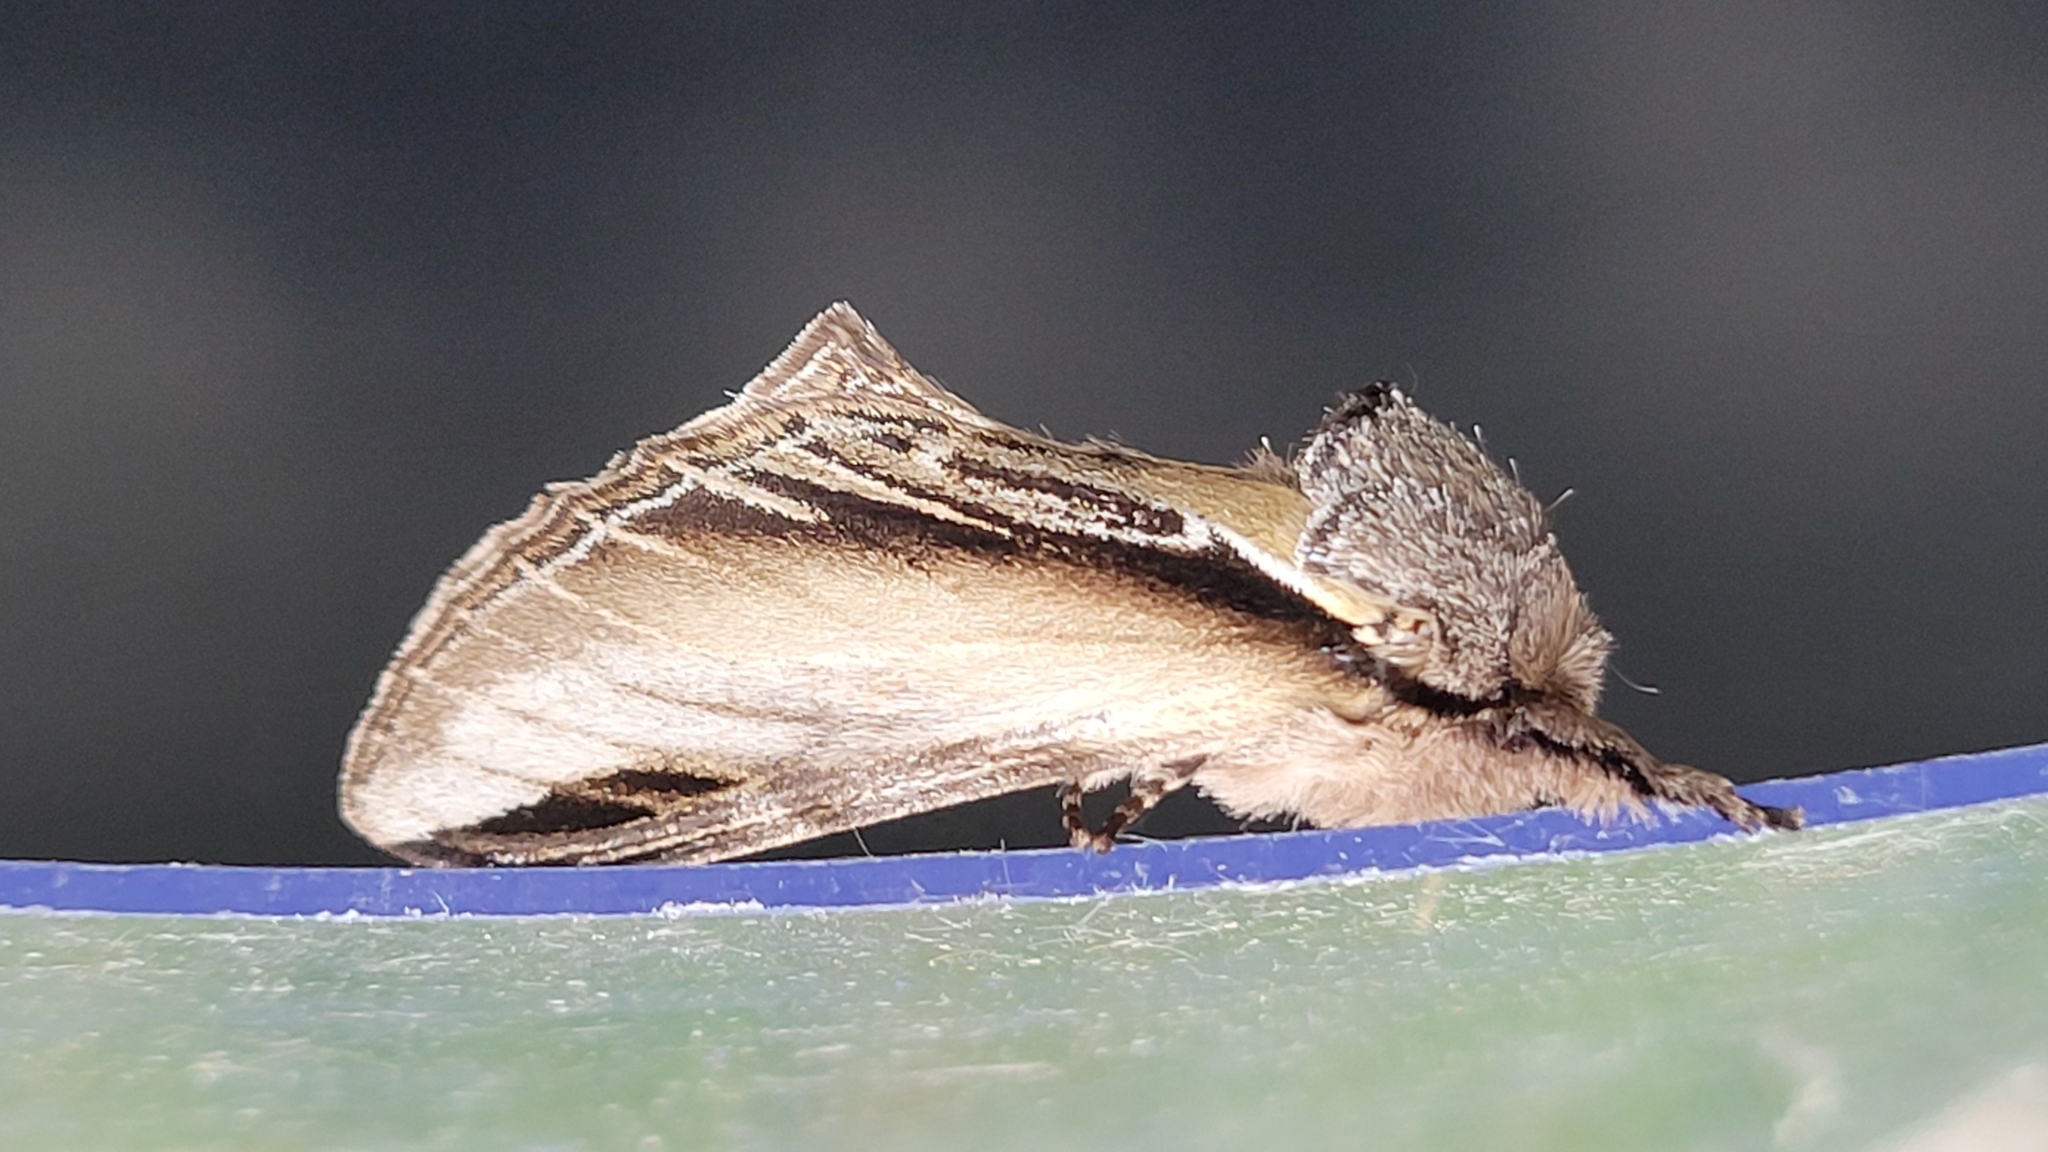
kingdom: Animalia
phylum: Arthropoda
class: Insecta
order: Lepidoptera
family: Notodontidae
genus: Pheosia
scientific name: Pheosia tremula
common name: Swallow prominent
